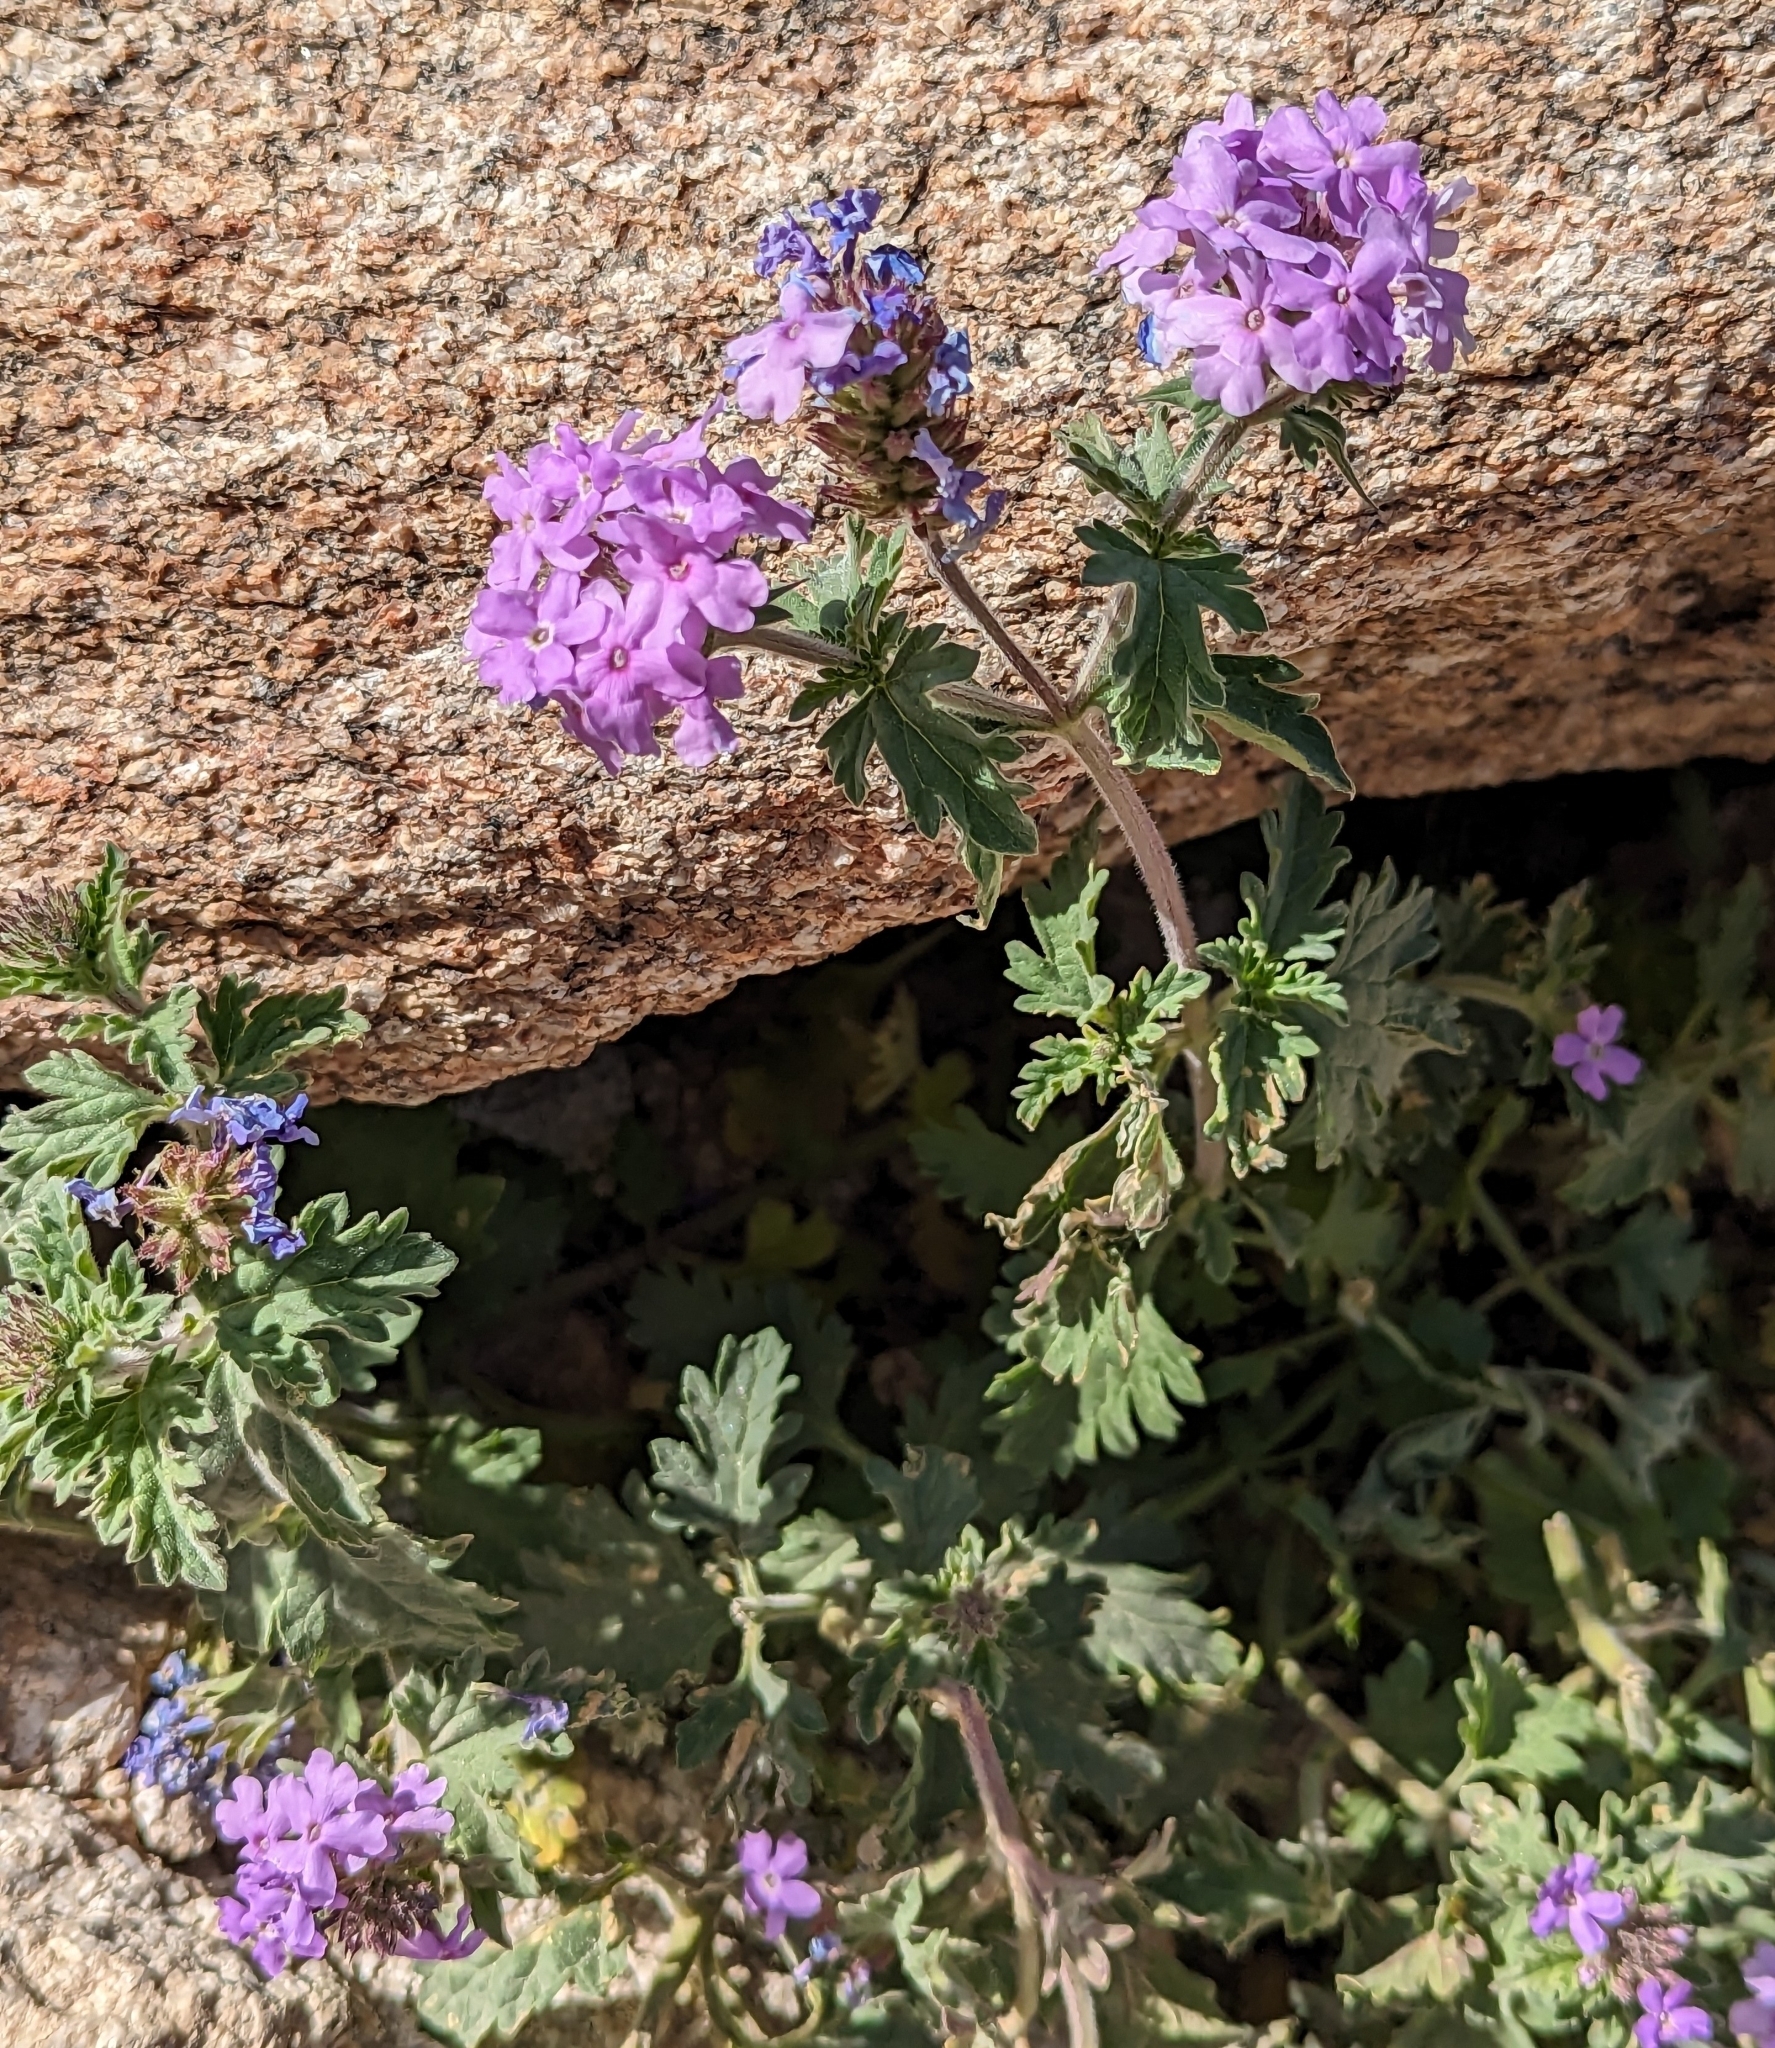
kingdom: Plantae
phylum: Tracheophyta
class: Magnoliopsida
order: Lamiales
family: Verbenaceae
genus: Verbena
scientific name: Verbena gooddingii
